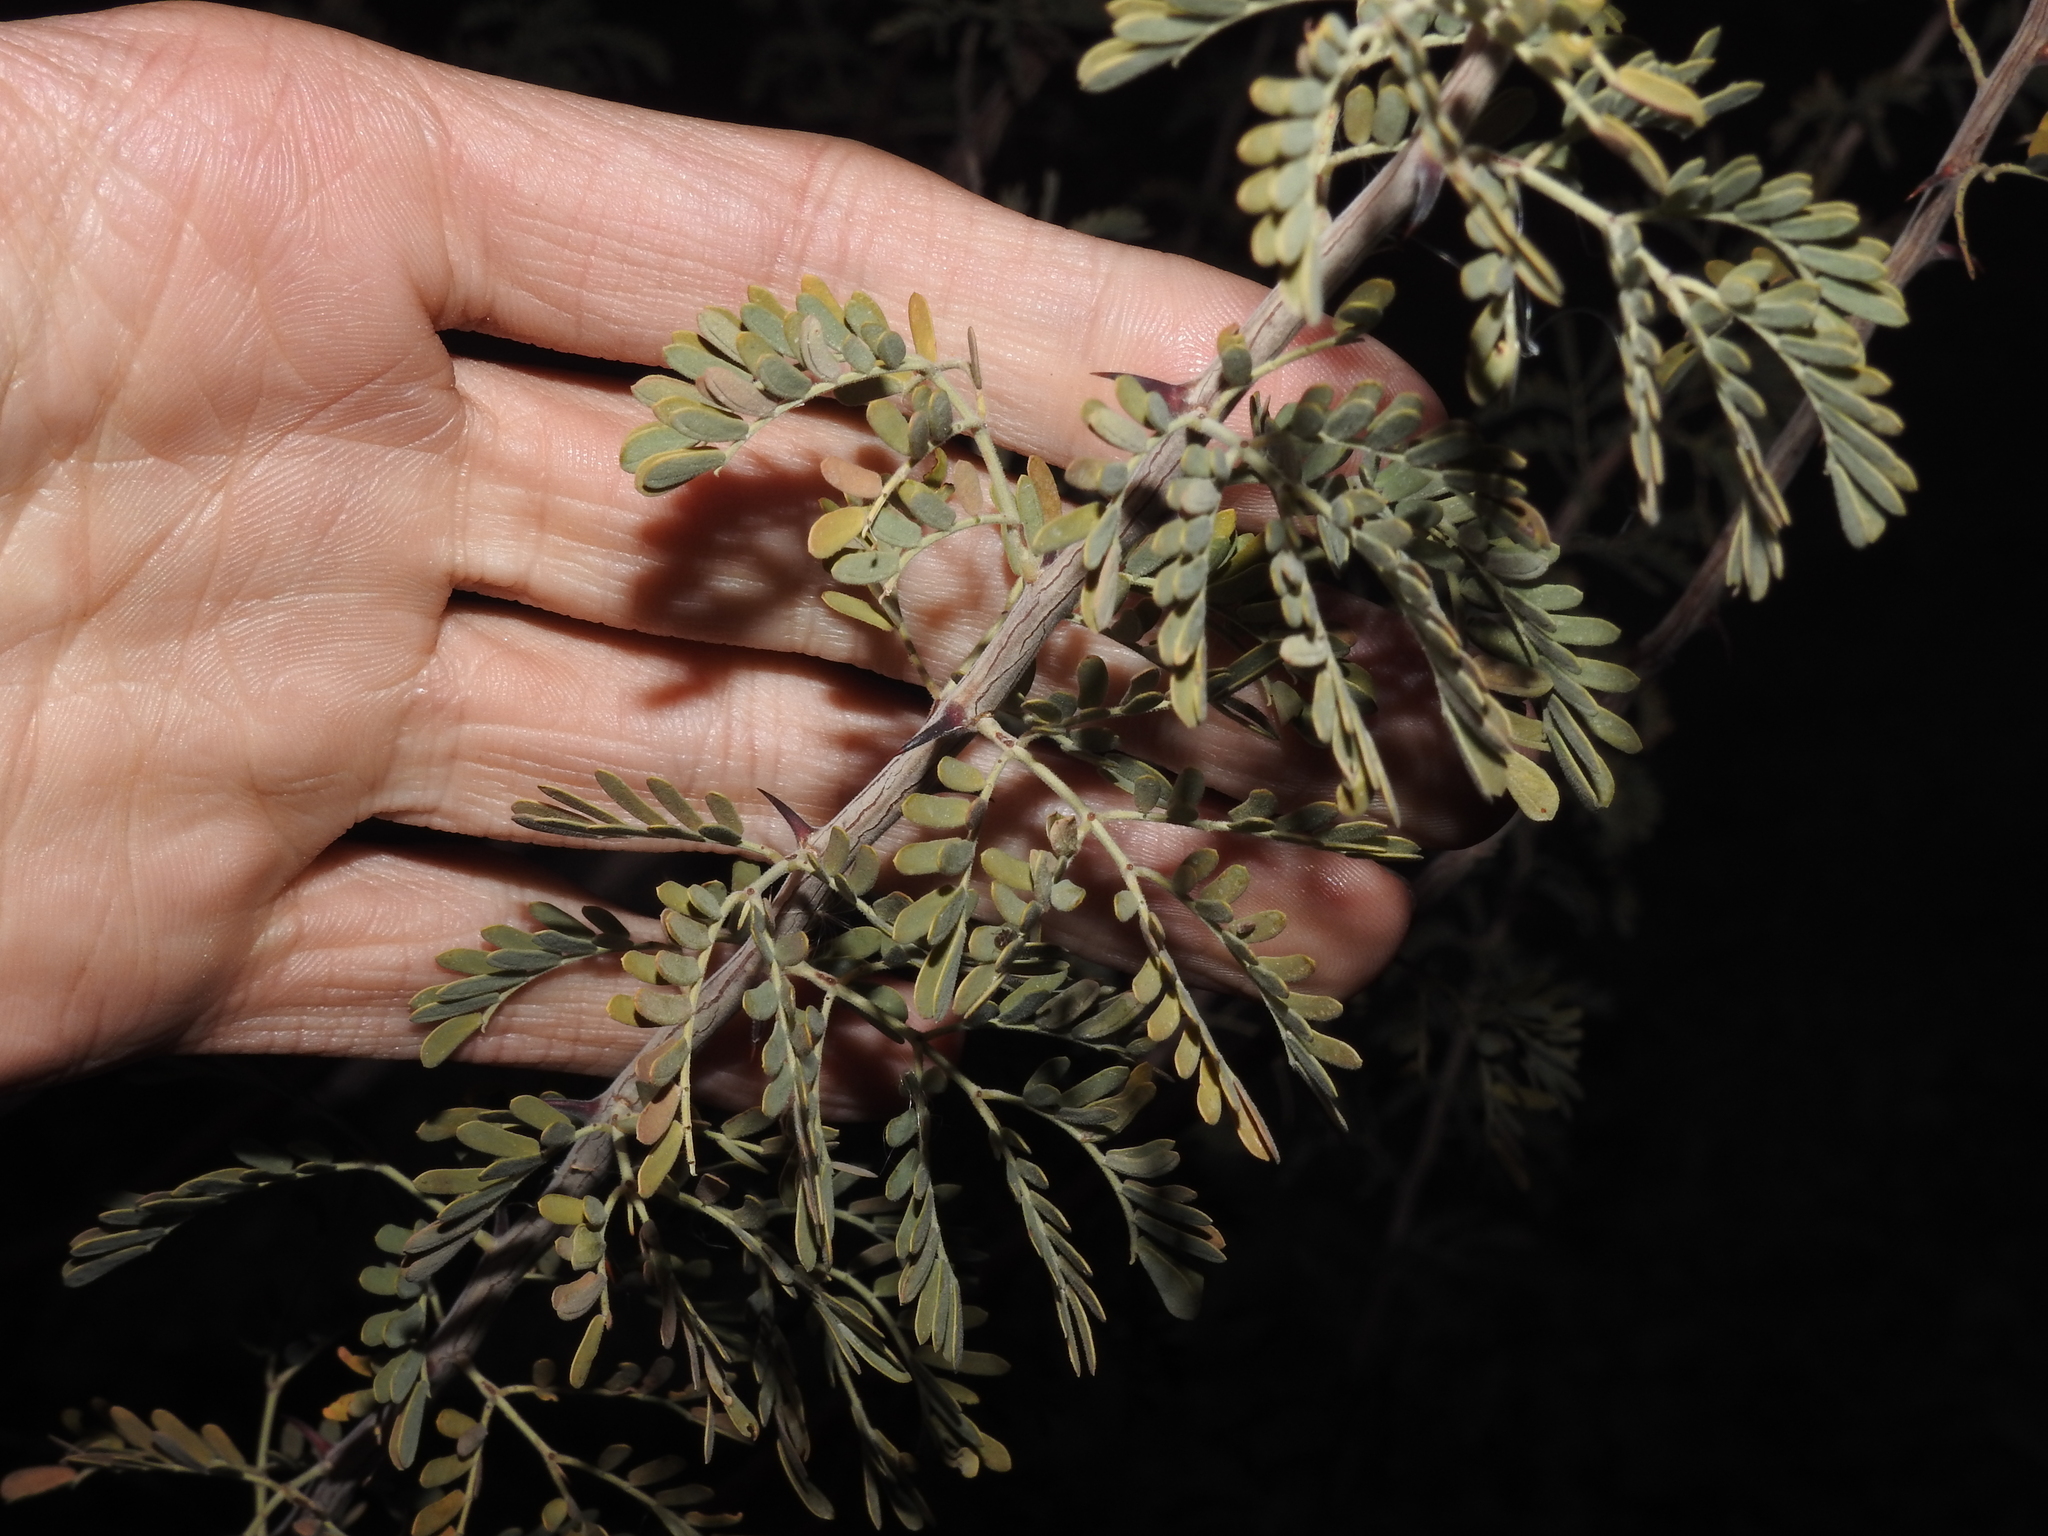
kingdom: Plantae
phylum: Tracheophyta
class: Magnoliopsida
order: Fabales
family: Fabaceae
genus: Senegalia
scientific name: Senegalia greggii
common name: Texas-mimosa
